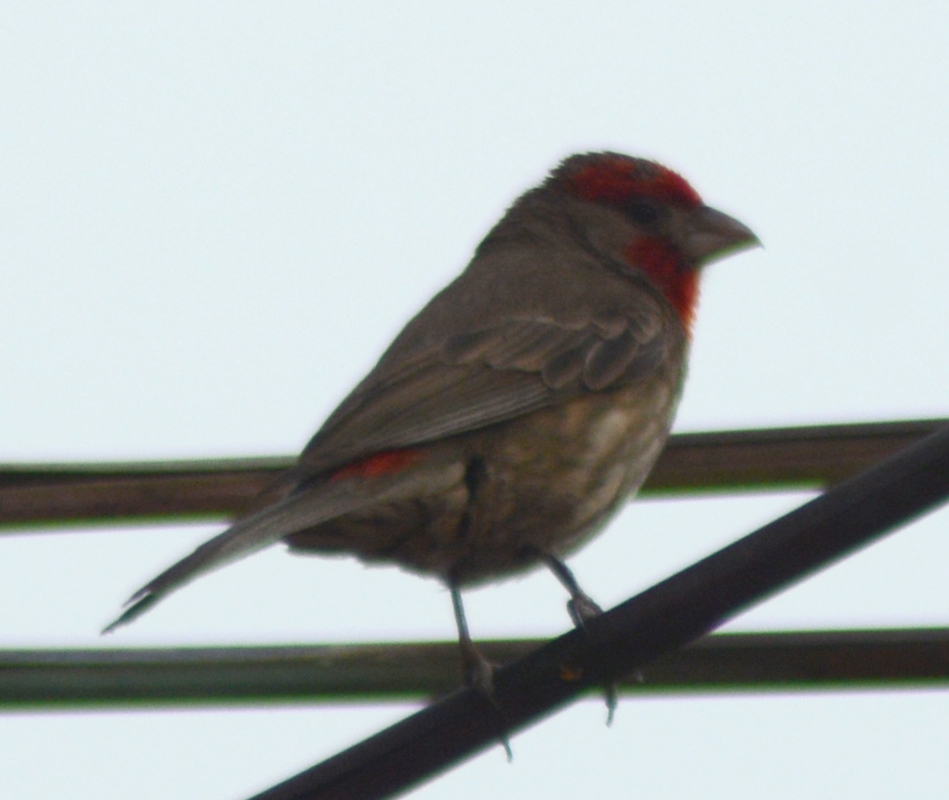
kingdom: Animalia
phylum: Chordata
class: Aves
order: Passeriformes
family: Fringillidae
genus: Haemorhous
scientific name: Haemorhous mexicanus
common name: House finch
